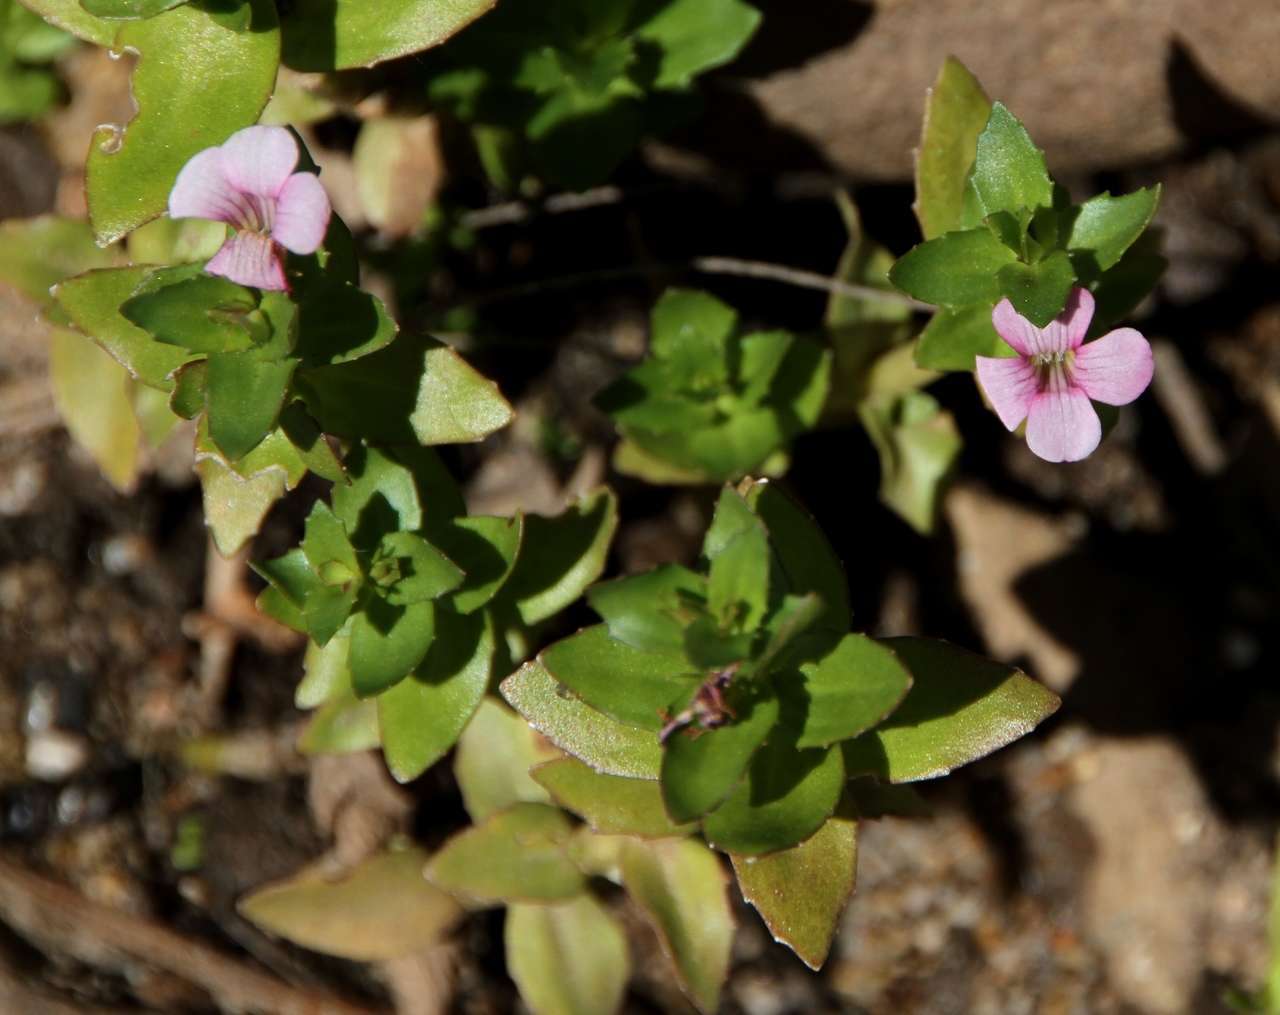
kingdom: Plantae
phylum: Tracheophyta
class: Magnoliopsida
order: Lamiales
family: Plantaginaceae
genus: Gratiola
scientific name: Gratiola peruviana
